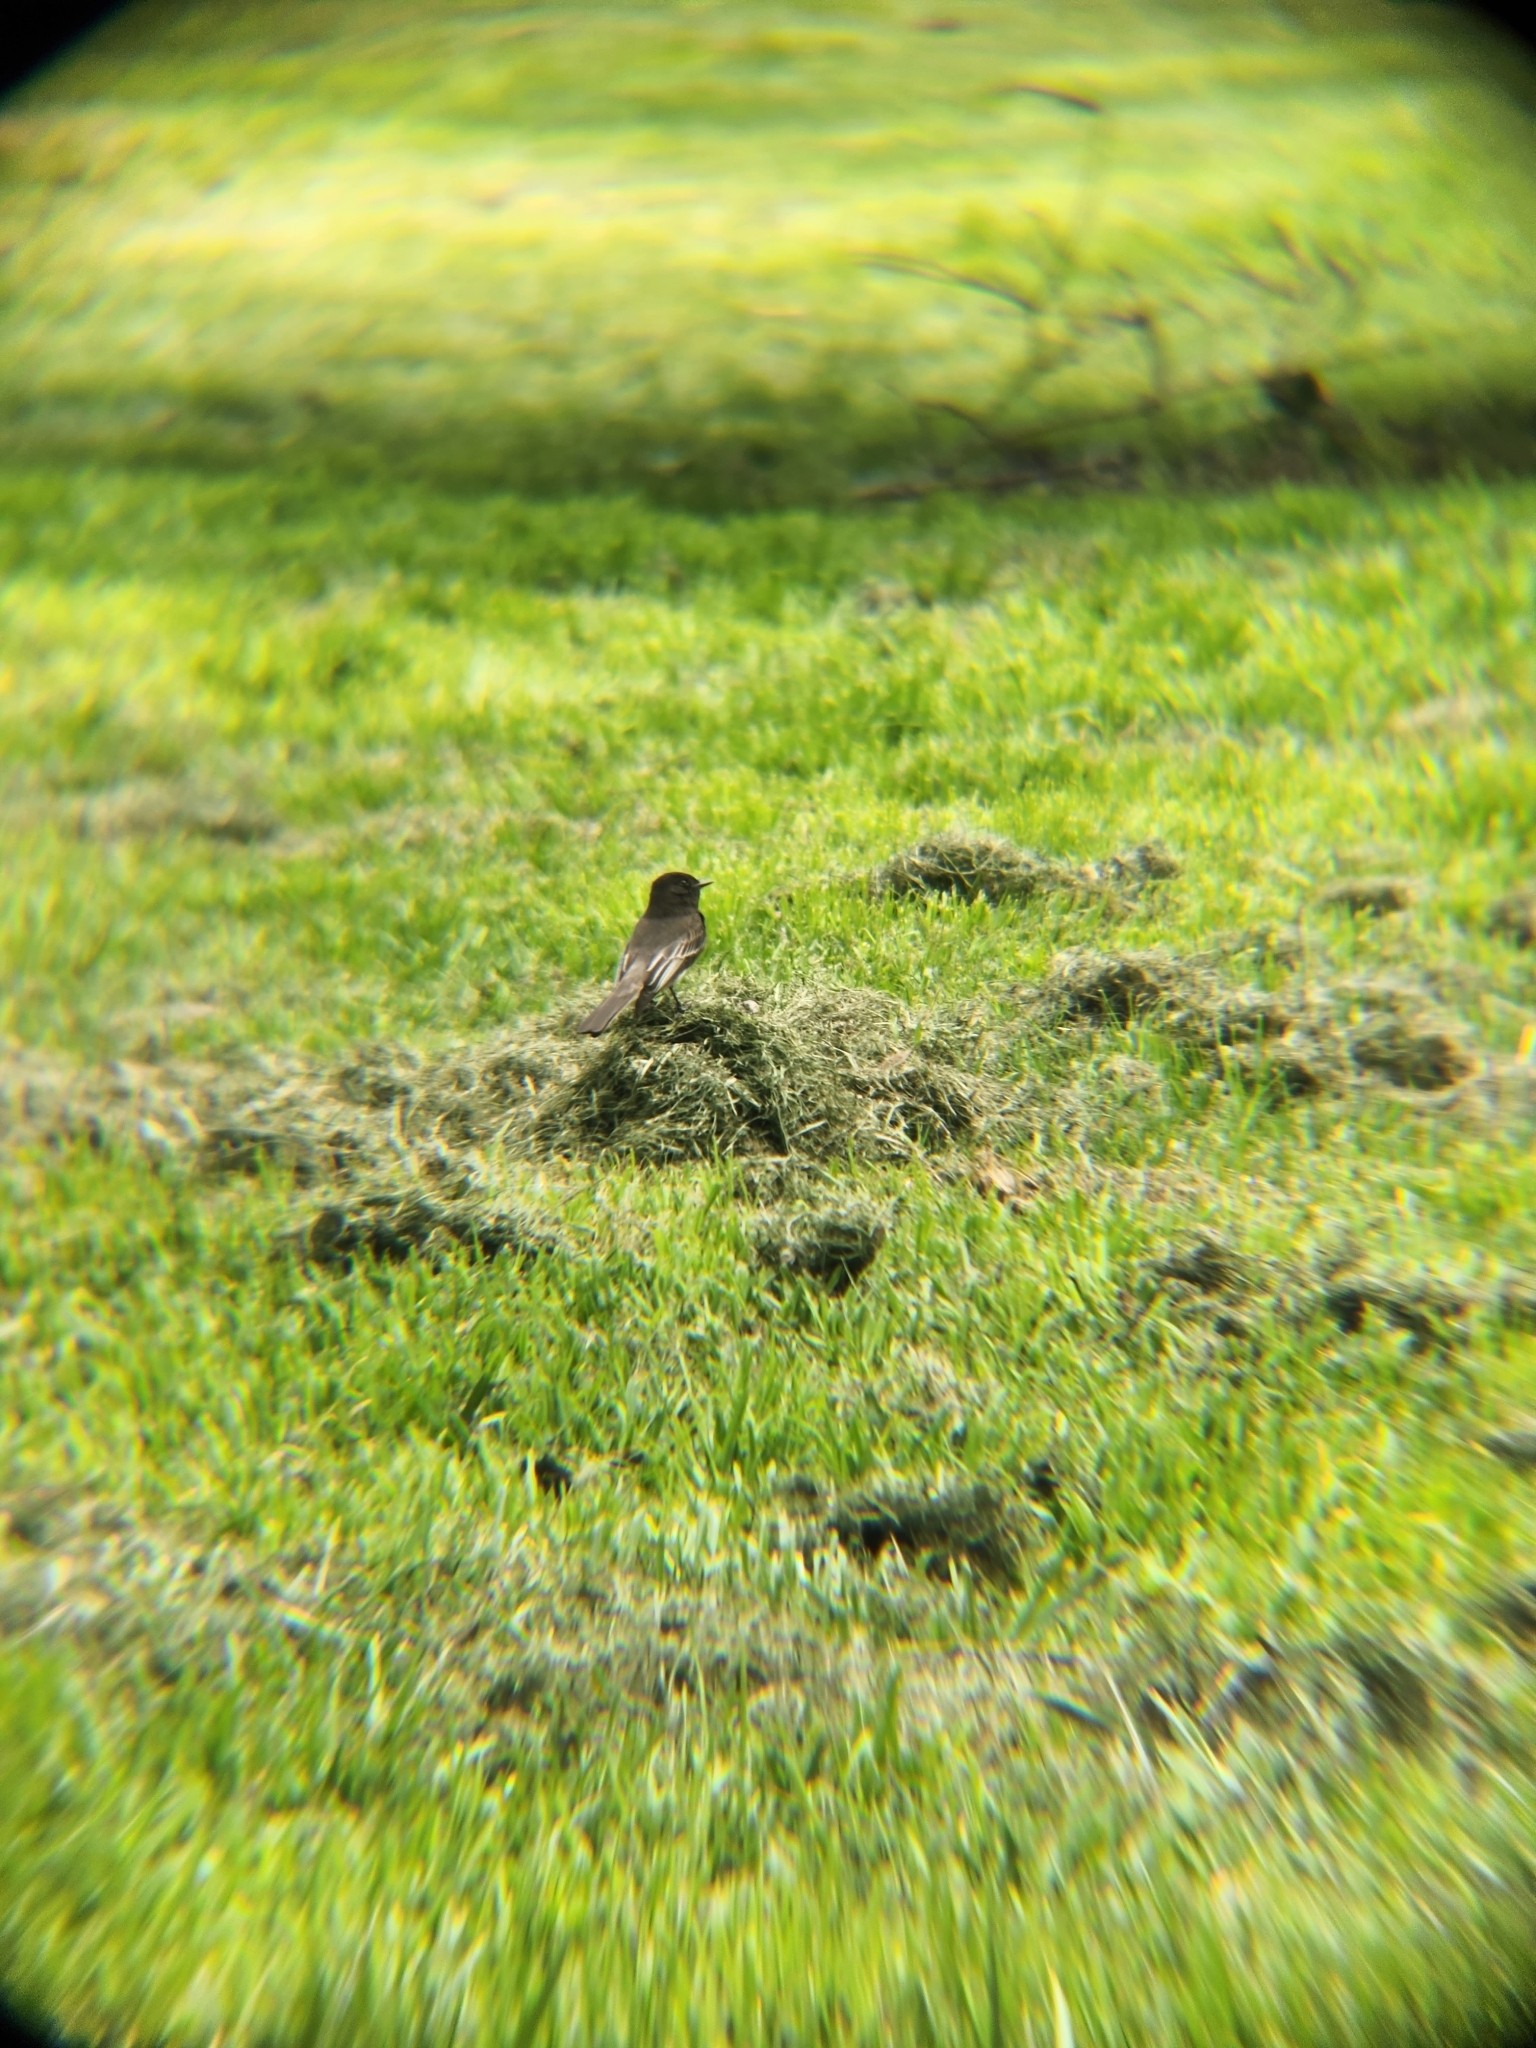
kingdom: Animalia
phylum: Chordata
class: Aves
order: Passeriformes
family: Tyrannidae
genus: Sayornis
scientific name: Sayornis nigricans
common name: Black phoebe
